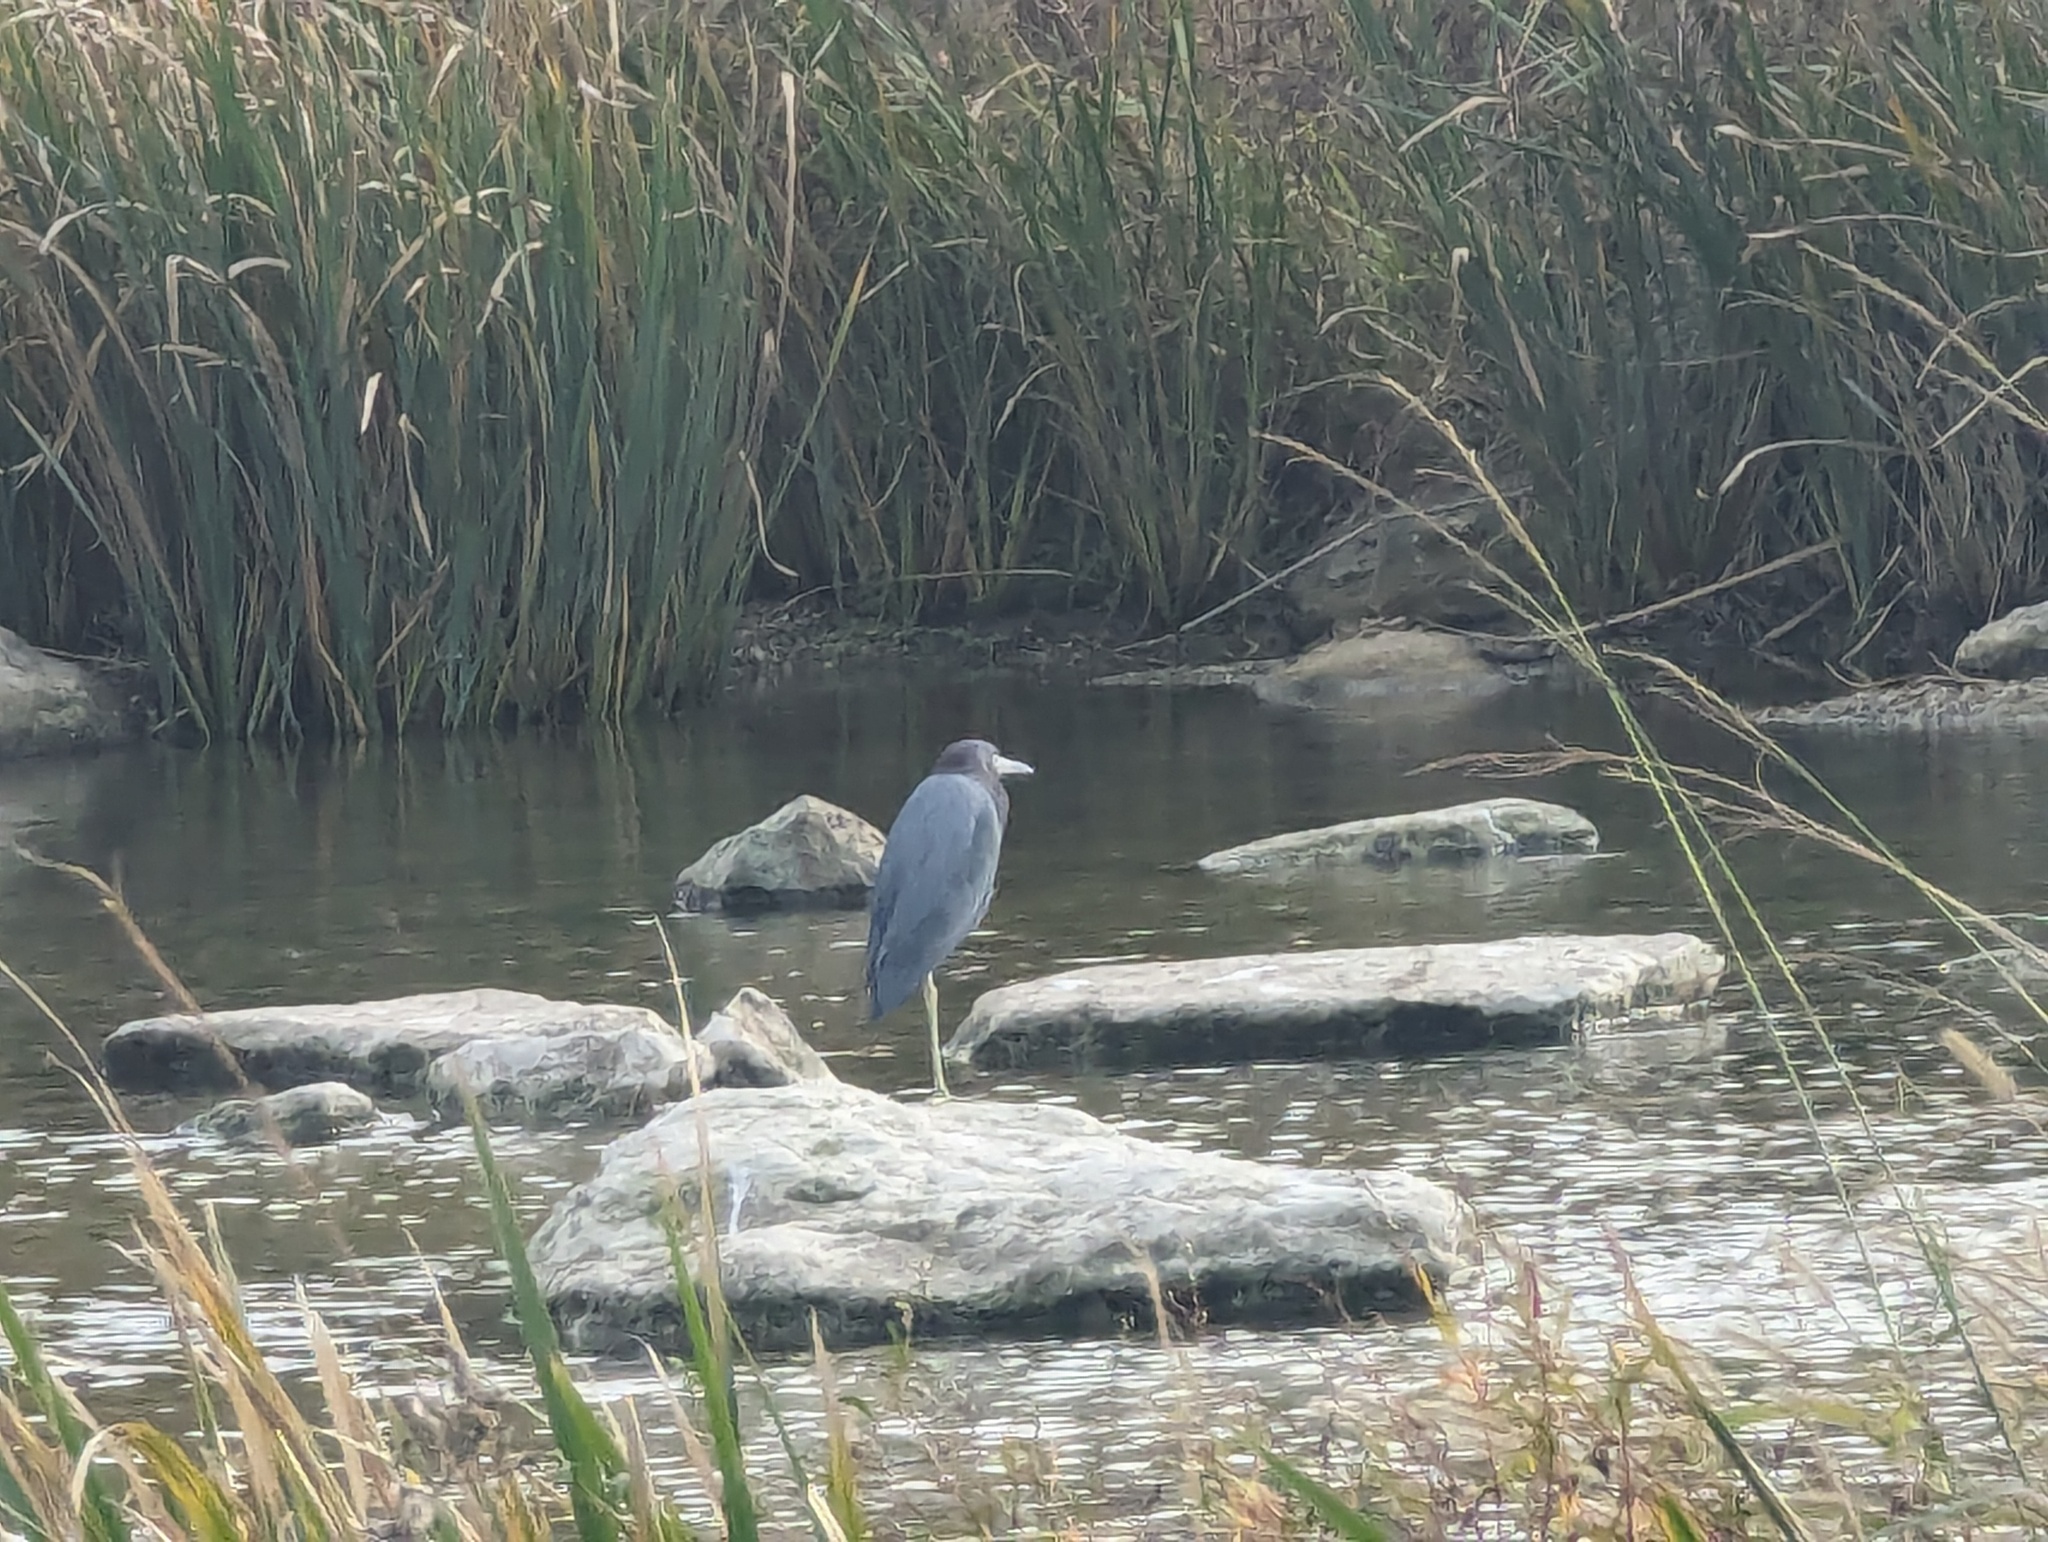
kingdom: Animalia
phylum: Chordata
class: Aves
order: Pelecaniformes
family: Ardeidae
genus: Egretta
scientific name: Egretta caerulea
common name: Little blue heron
